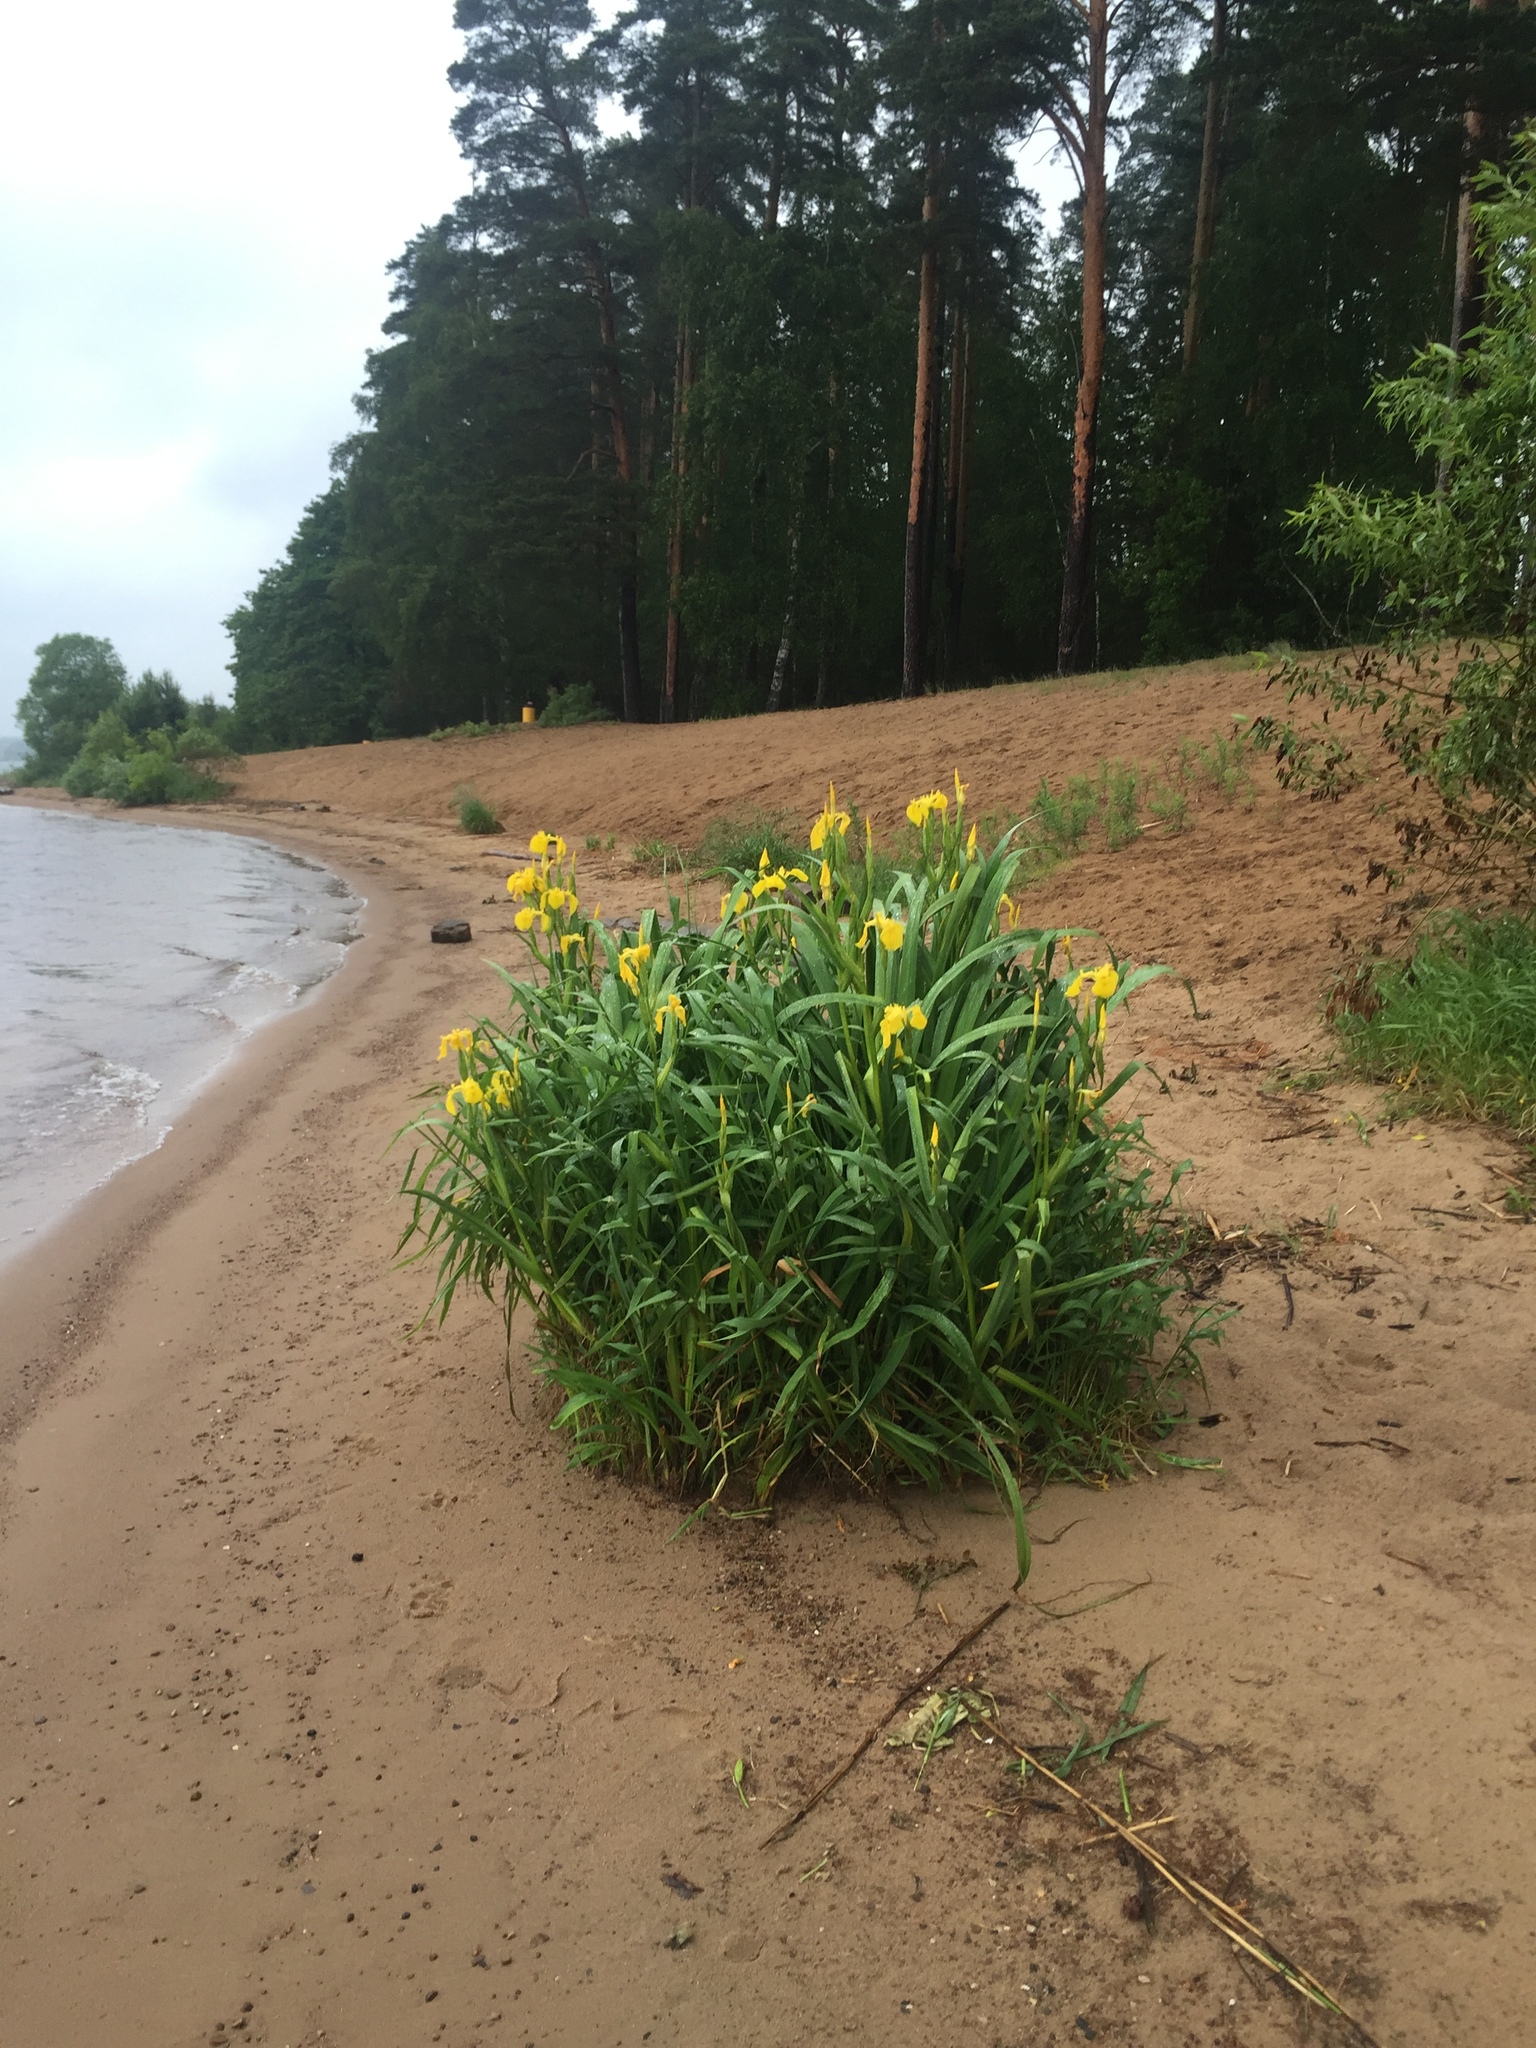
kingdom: Plantae
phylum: Tracheophyta
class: Liliopsida
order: Asparagales
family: Iridaceae
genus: Iris
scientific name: Iris pseudacorus
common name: Yellow flag
